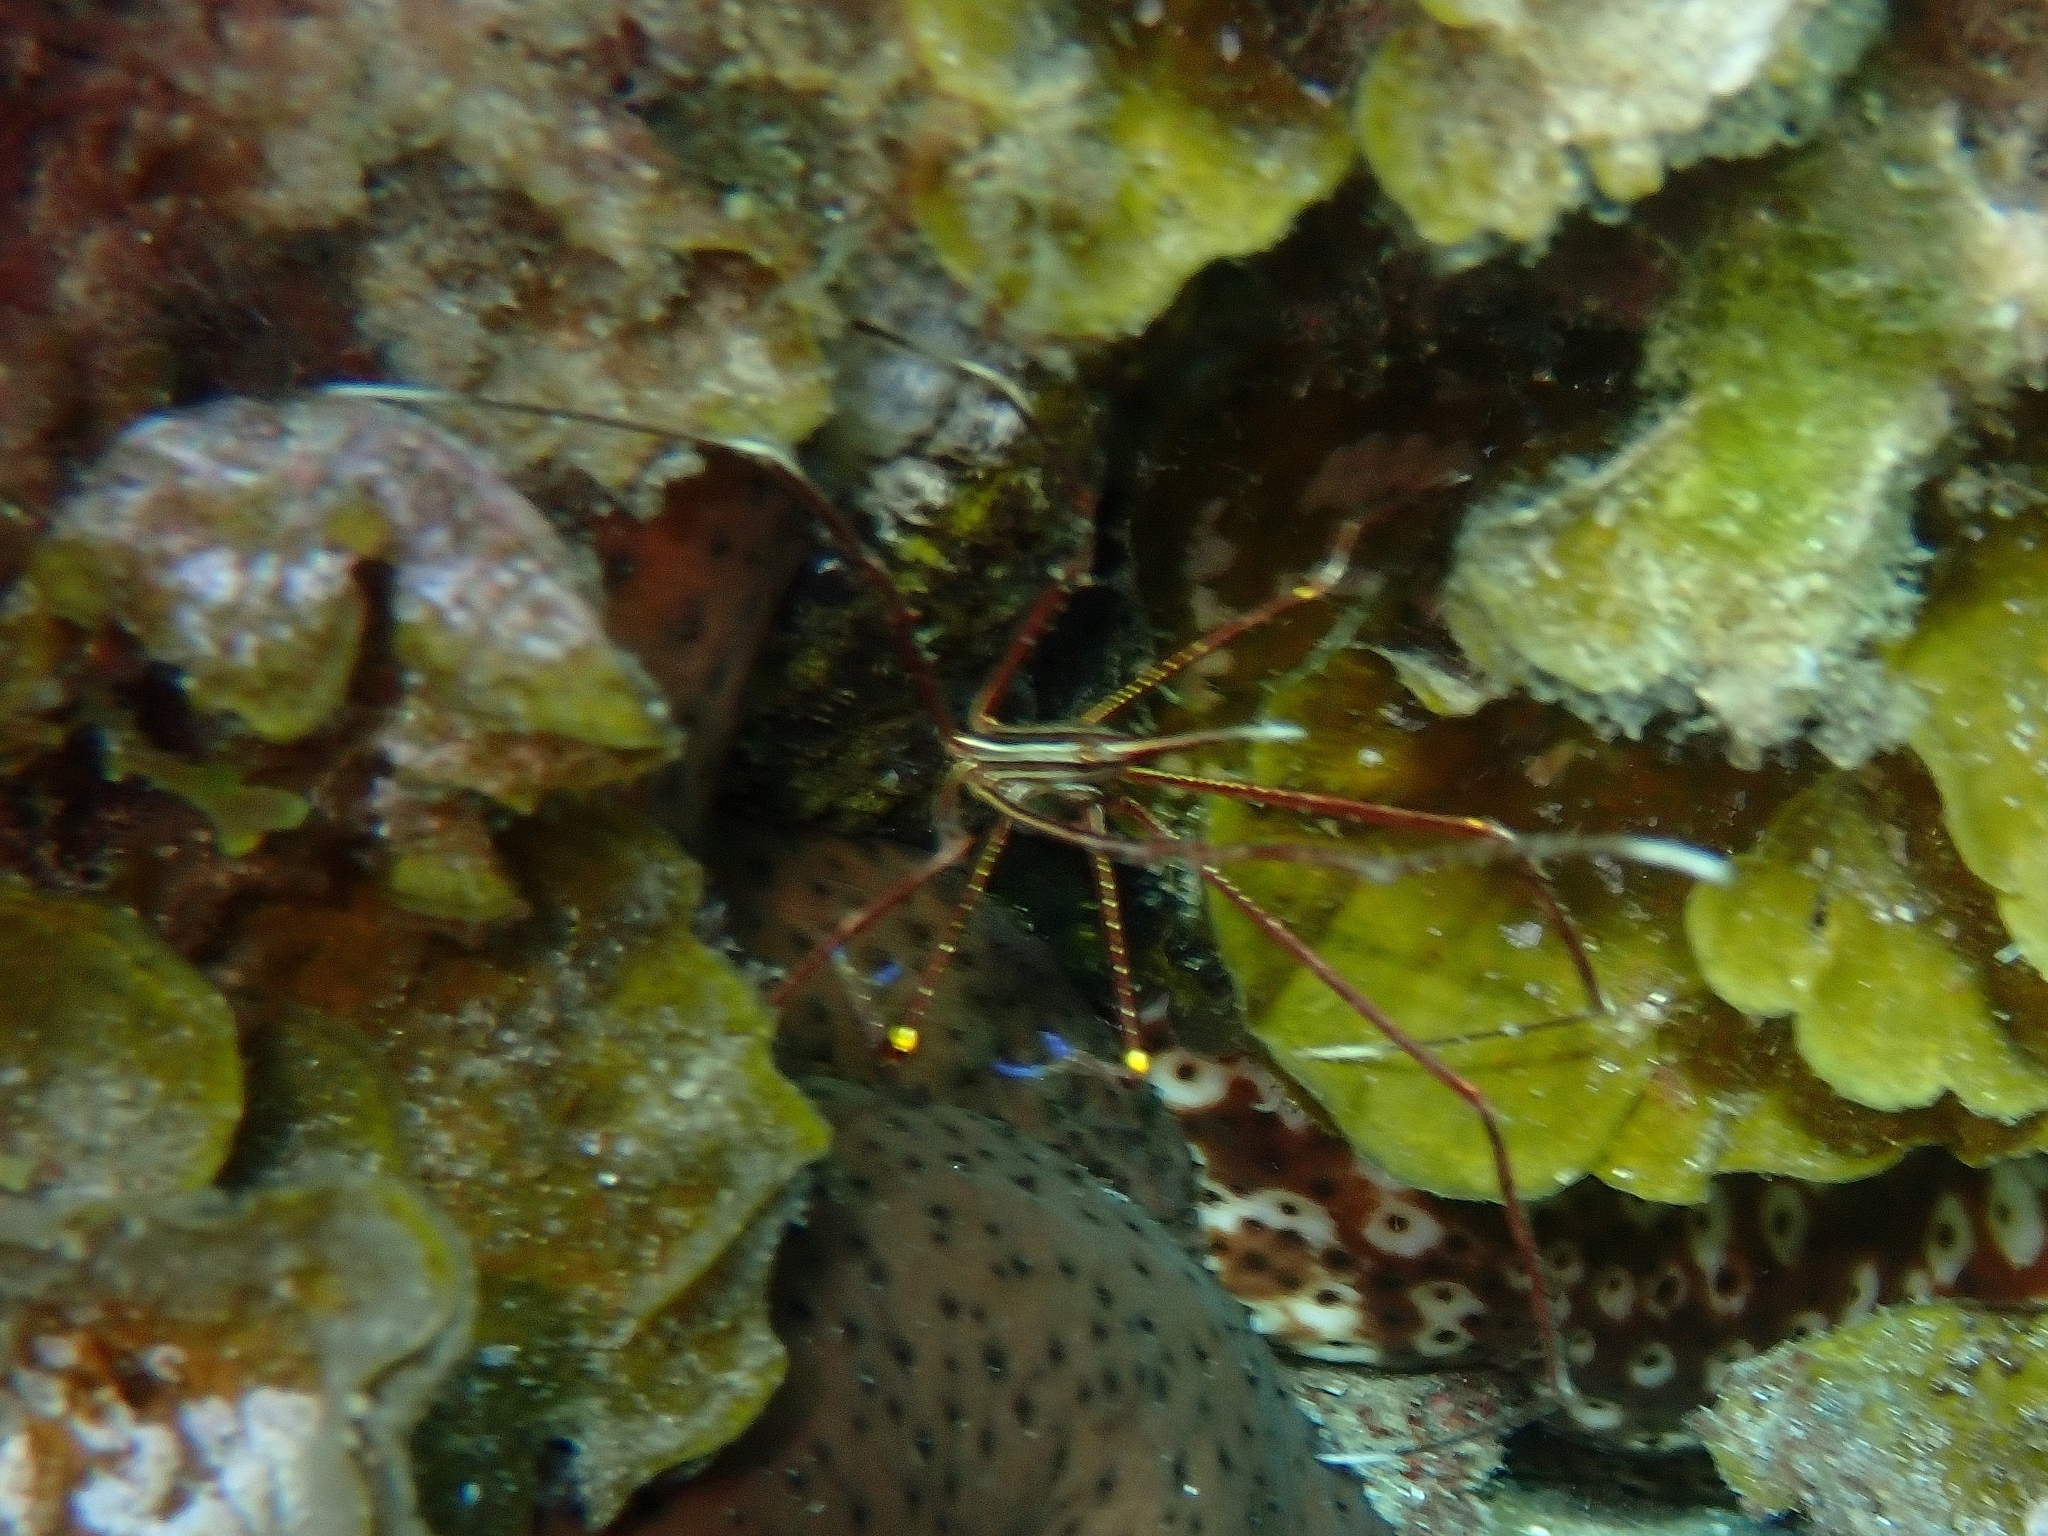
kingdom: Animalia
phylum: Arthropoda
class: Malacostraca
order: Decapoda
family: Inachoididae
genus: Stenorhynchus
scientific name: Stenorhynchus lanceolatus
